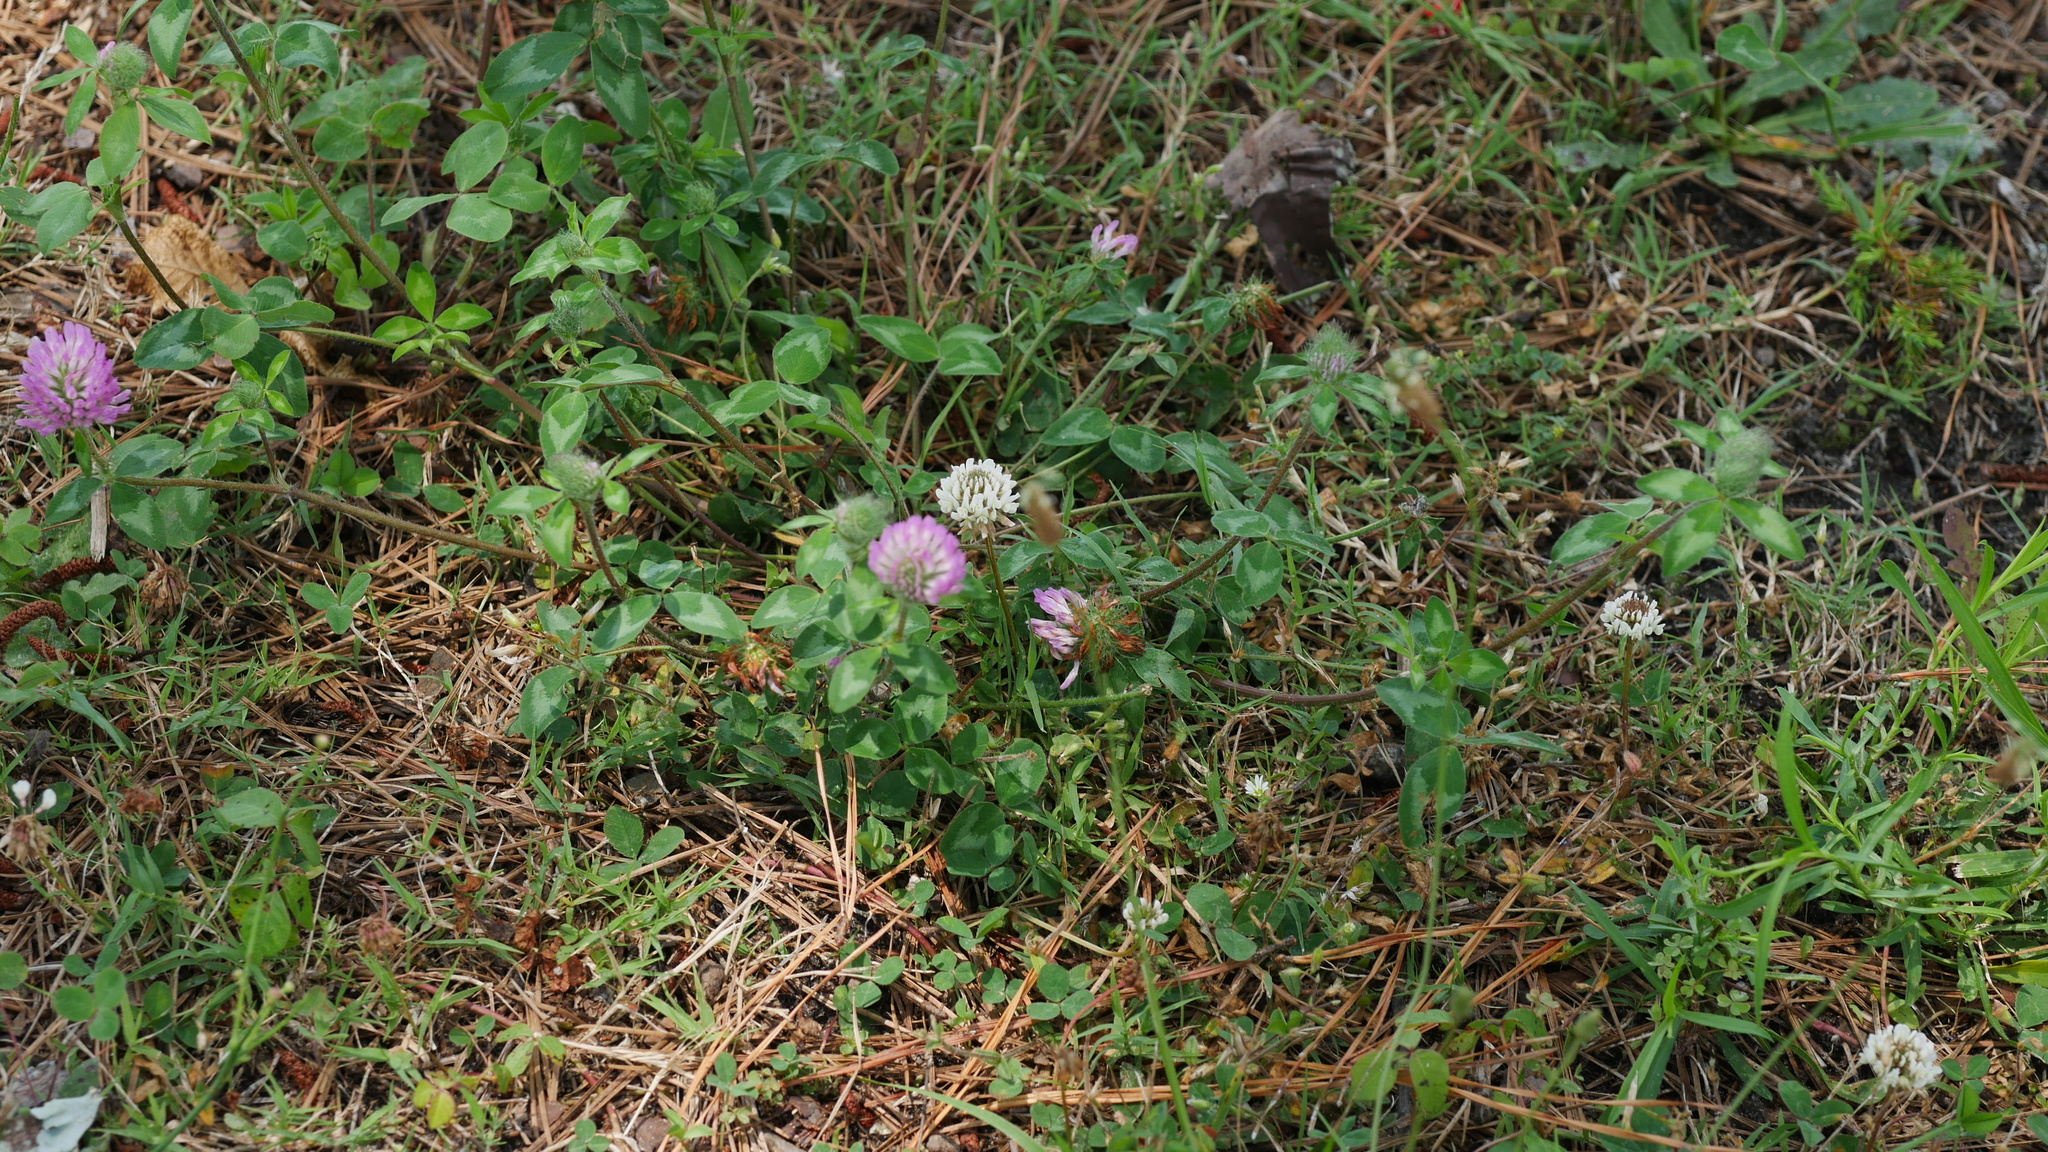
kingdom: Plantae
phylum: Tracheophyta
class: Magnoliopsida
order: Fabales
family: Fabaceae
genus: Trifolium
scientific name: Trifolium pratense
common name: Red clover
